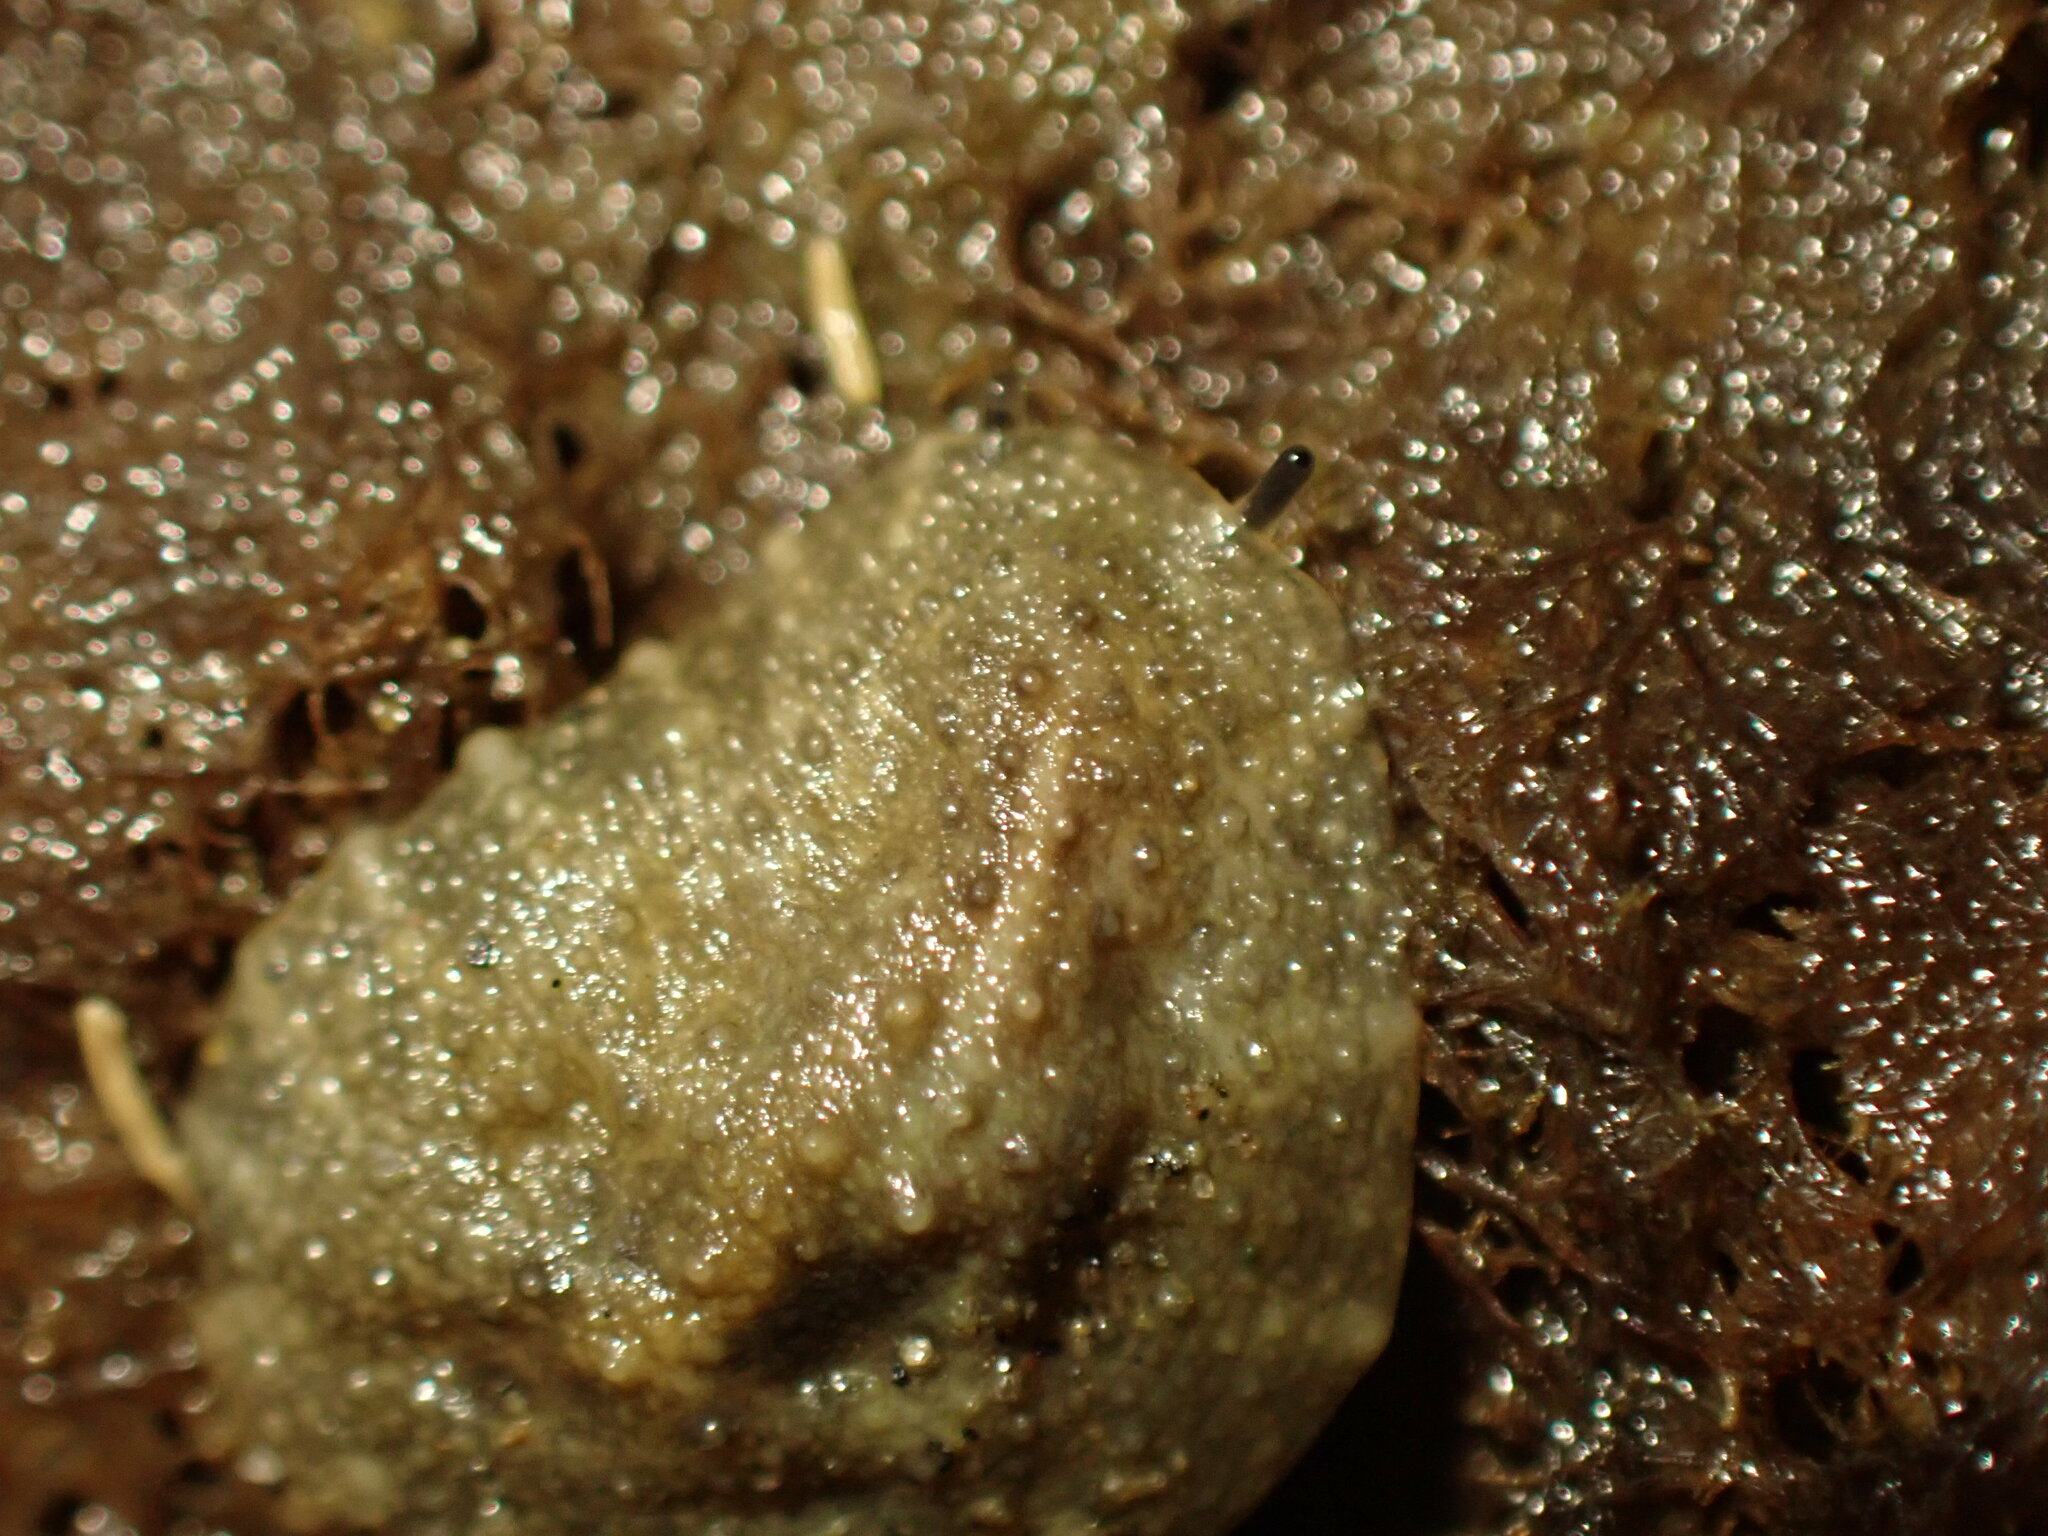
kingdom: Animalia
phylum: Mollusca
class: Gastropoda
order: Systellommatophora
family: Onchidiidae
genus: Onchidella
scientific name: Onchidella nigricans
